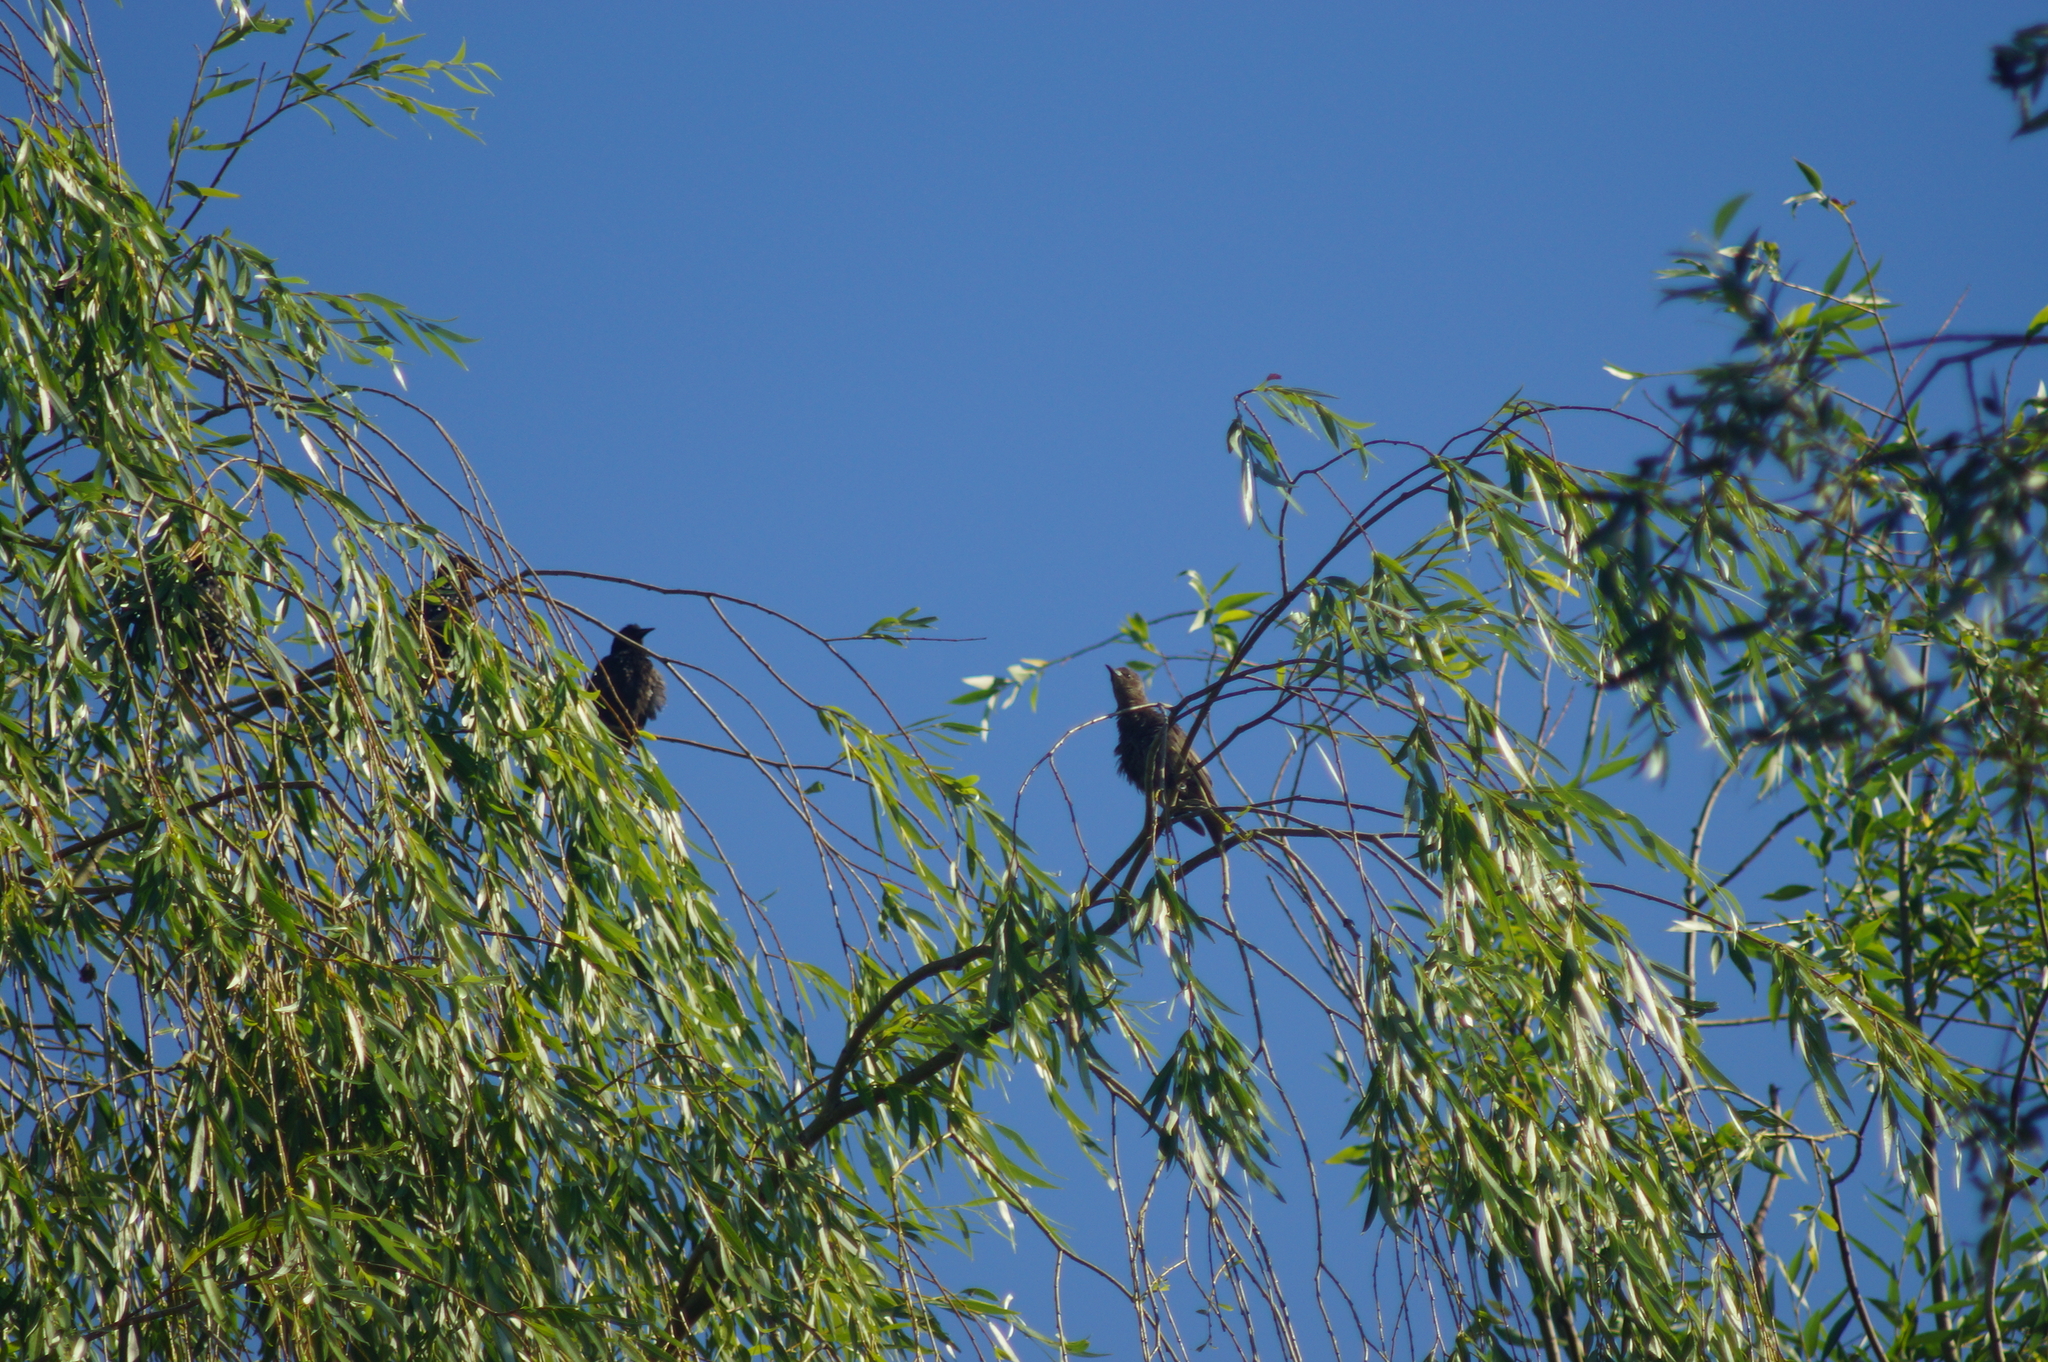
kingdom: Animalia
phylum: Chordata
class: Aves
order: Passeriformes
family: Sturnidae
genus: Sturnus
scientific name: Sturnus vulgaris
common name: Common starling
